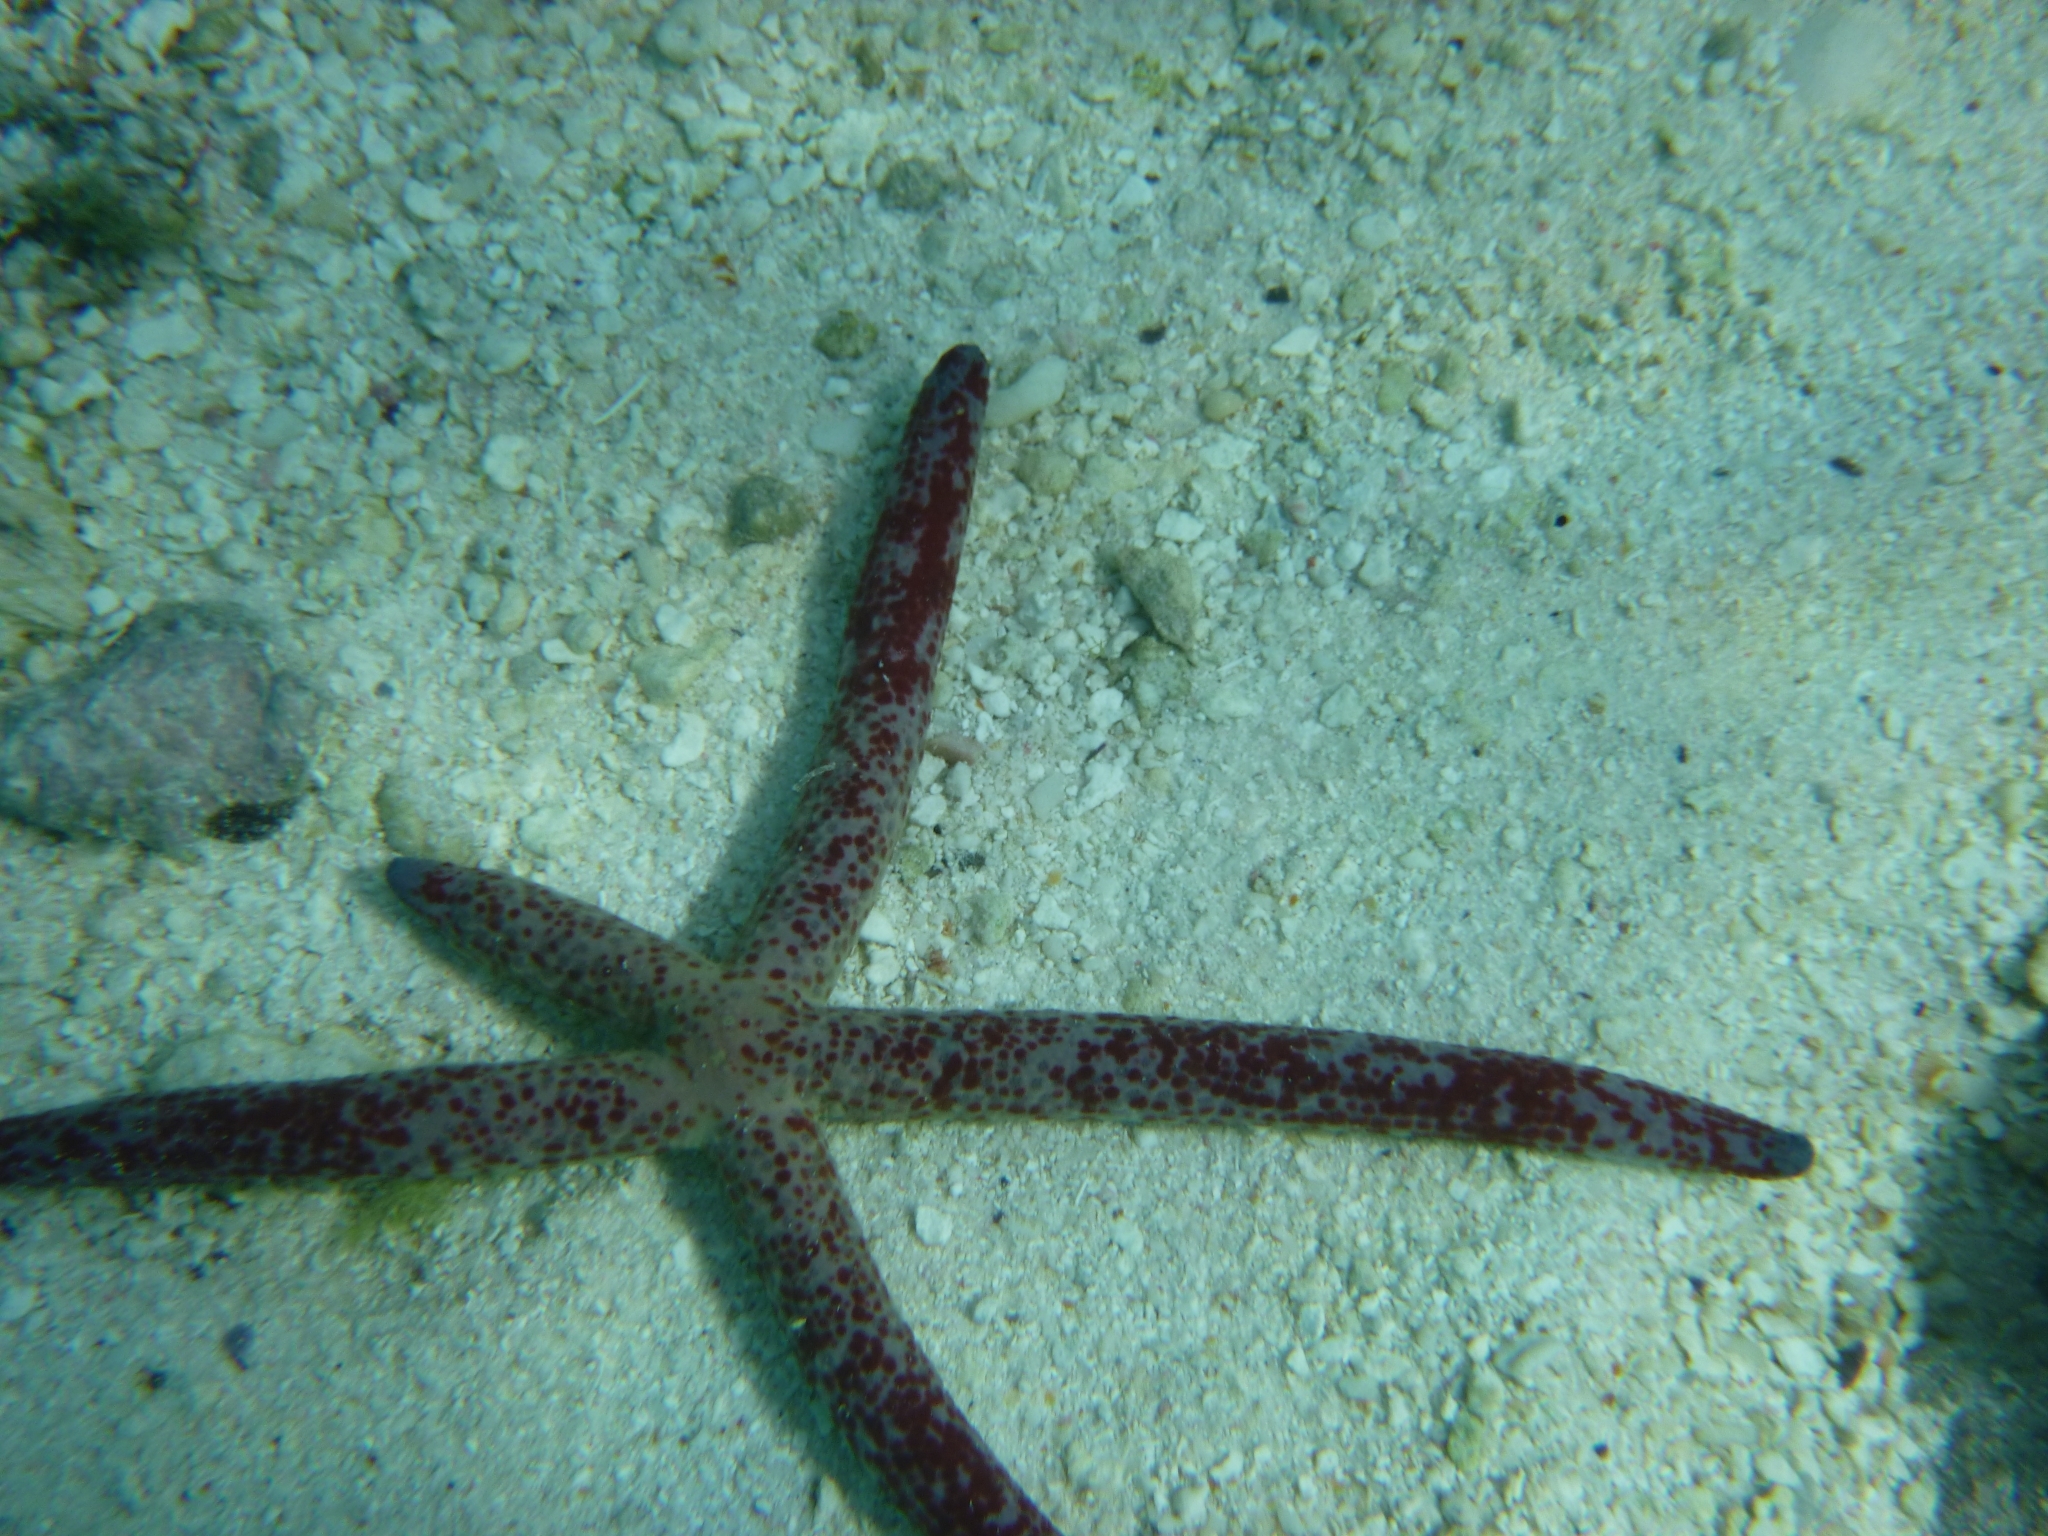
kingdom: Animalia
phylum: Echinodermata
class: Asteroidea
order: Valvatida
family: Ophidiasteridae
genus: Linckia
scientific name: Linckia multifora
